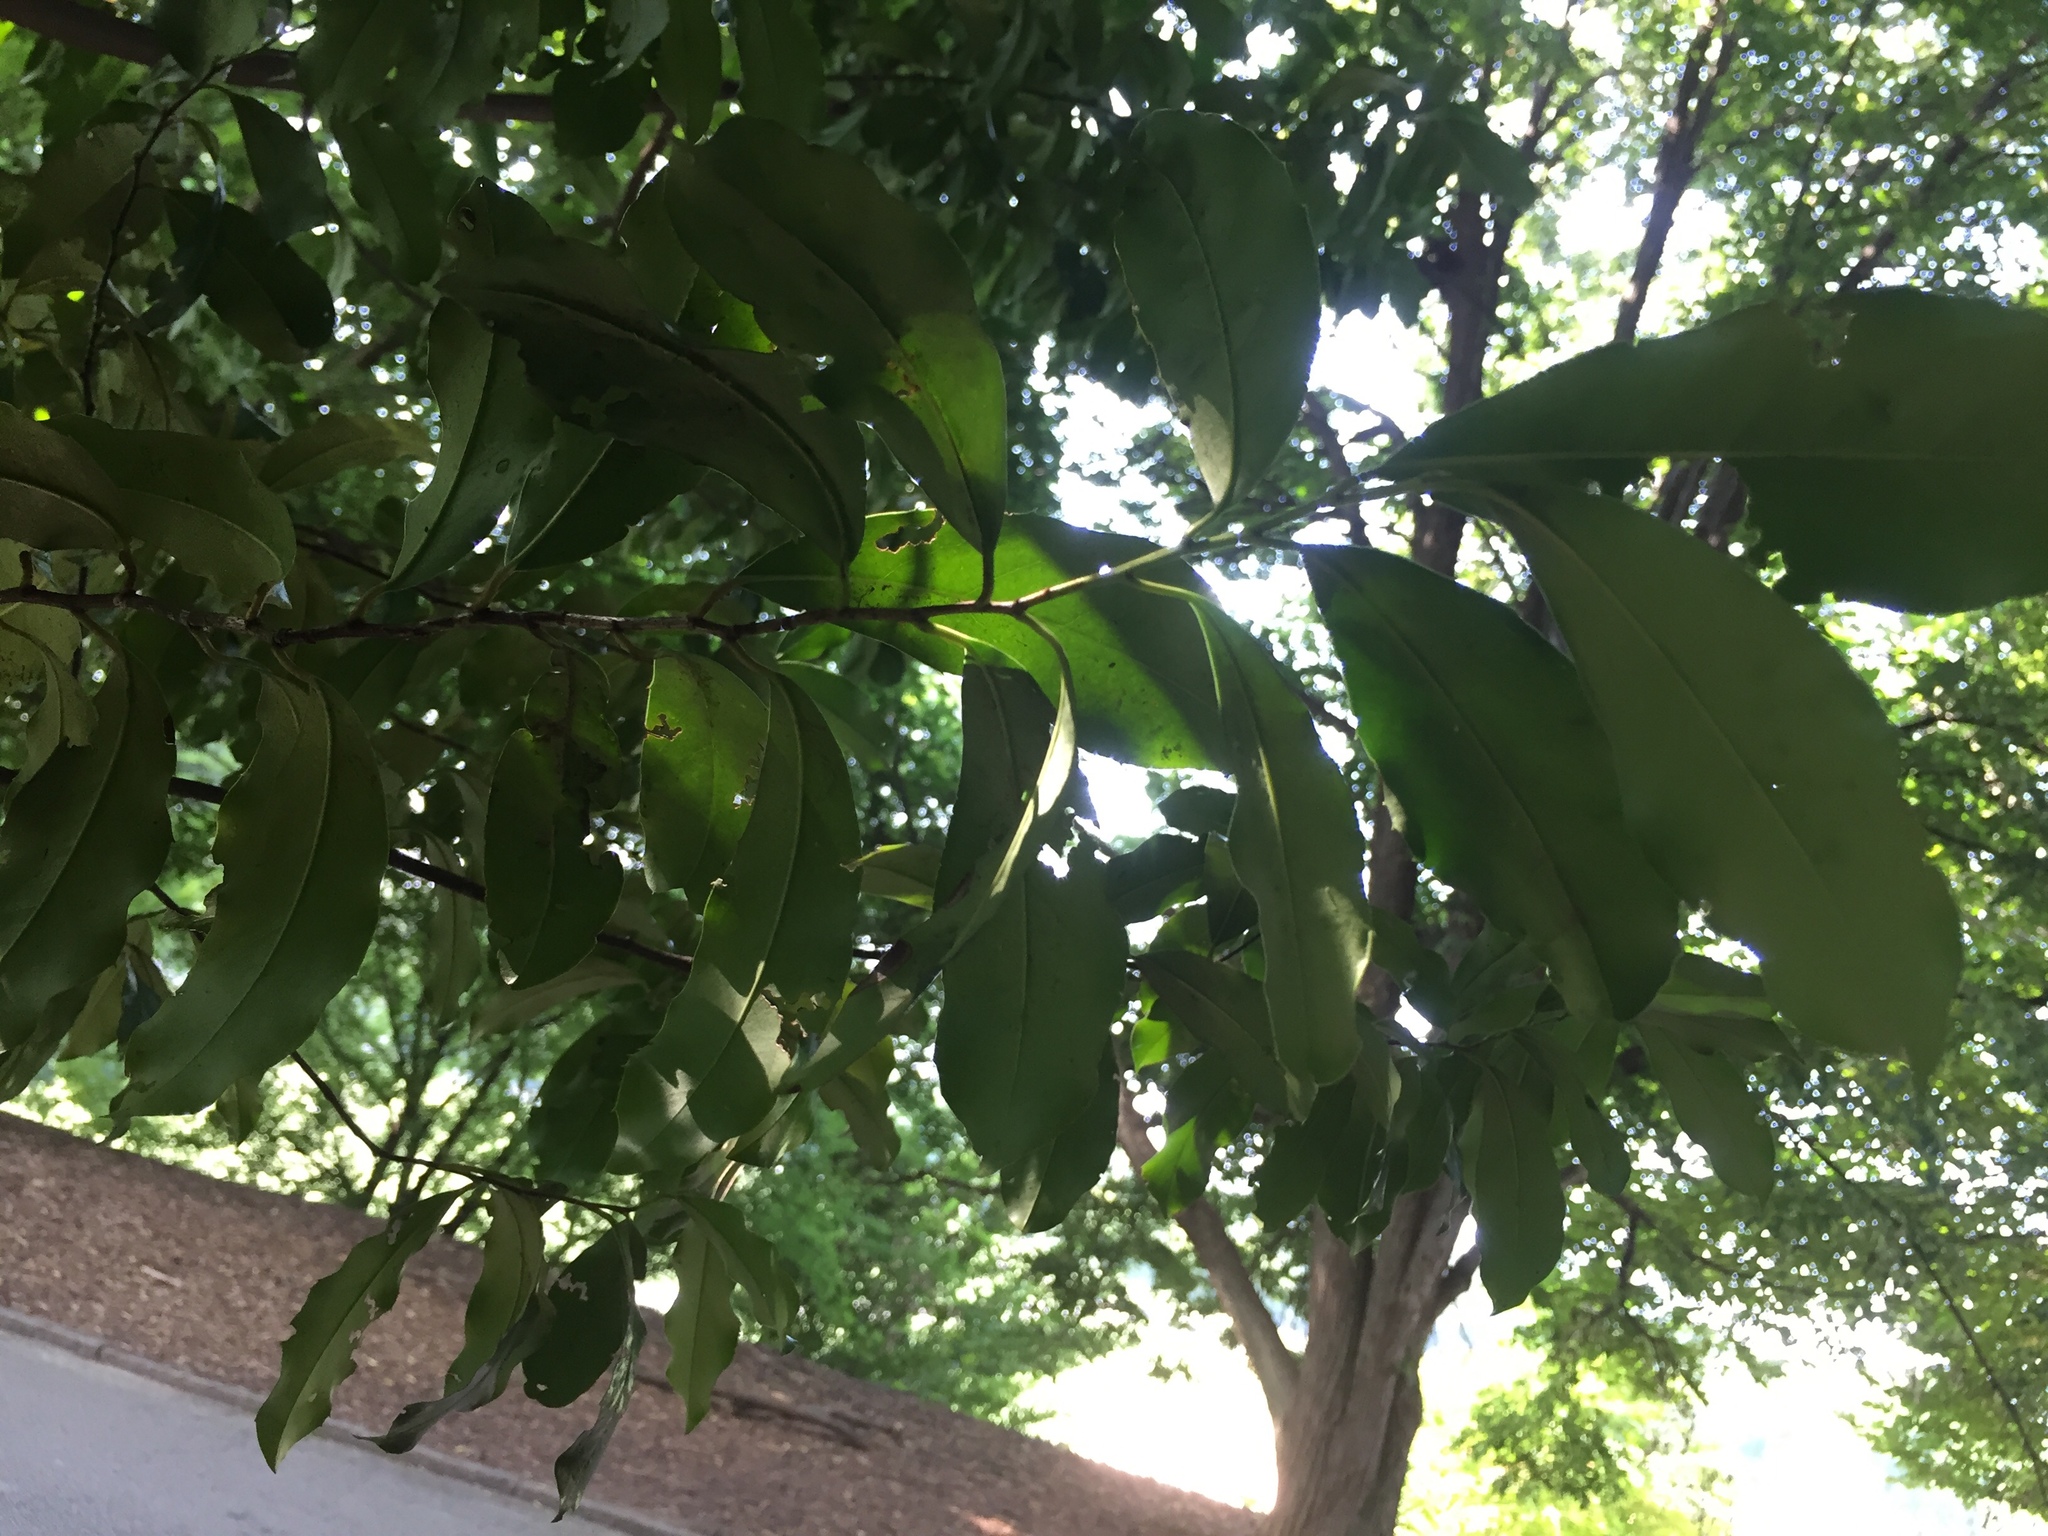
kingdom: Plantae
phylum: Tracheophyta
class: Magnoliopsida
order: Rosales
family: Rosaceae
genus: Prunus
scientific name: Prunus serotina
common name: Black cherry
